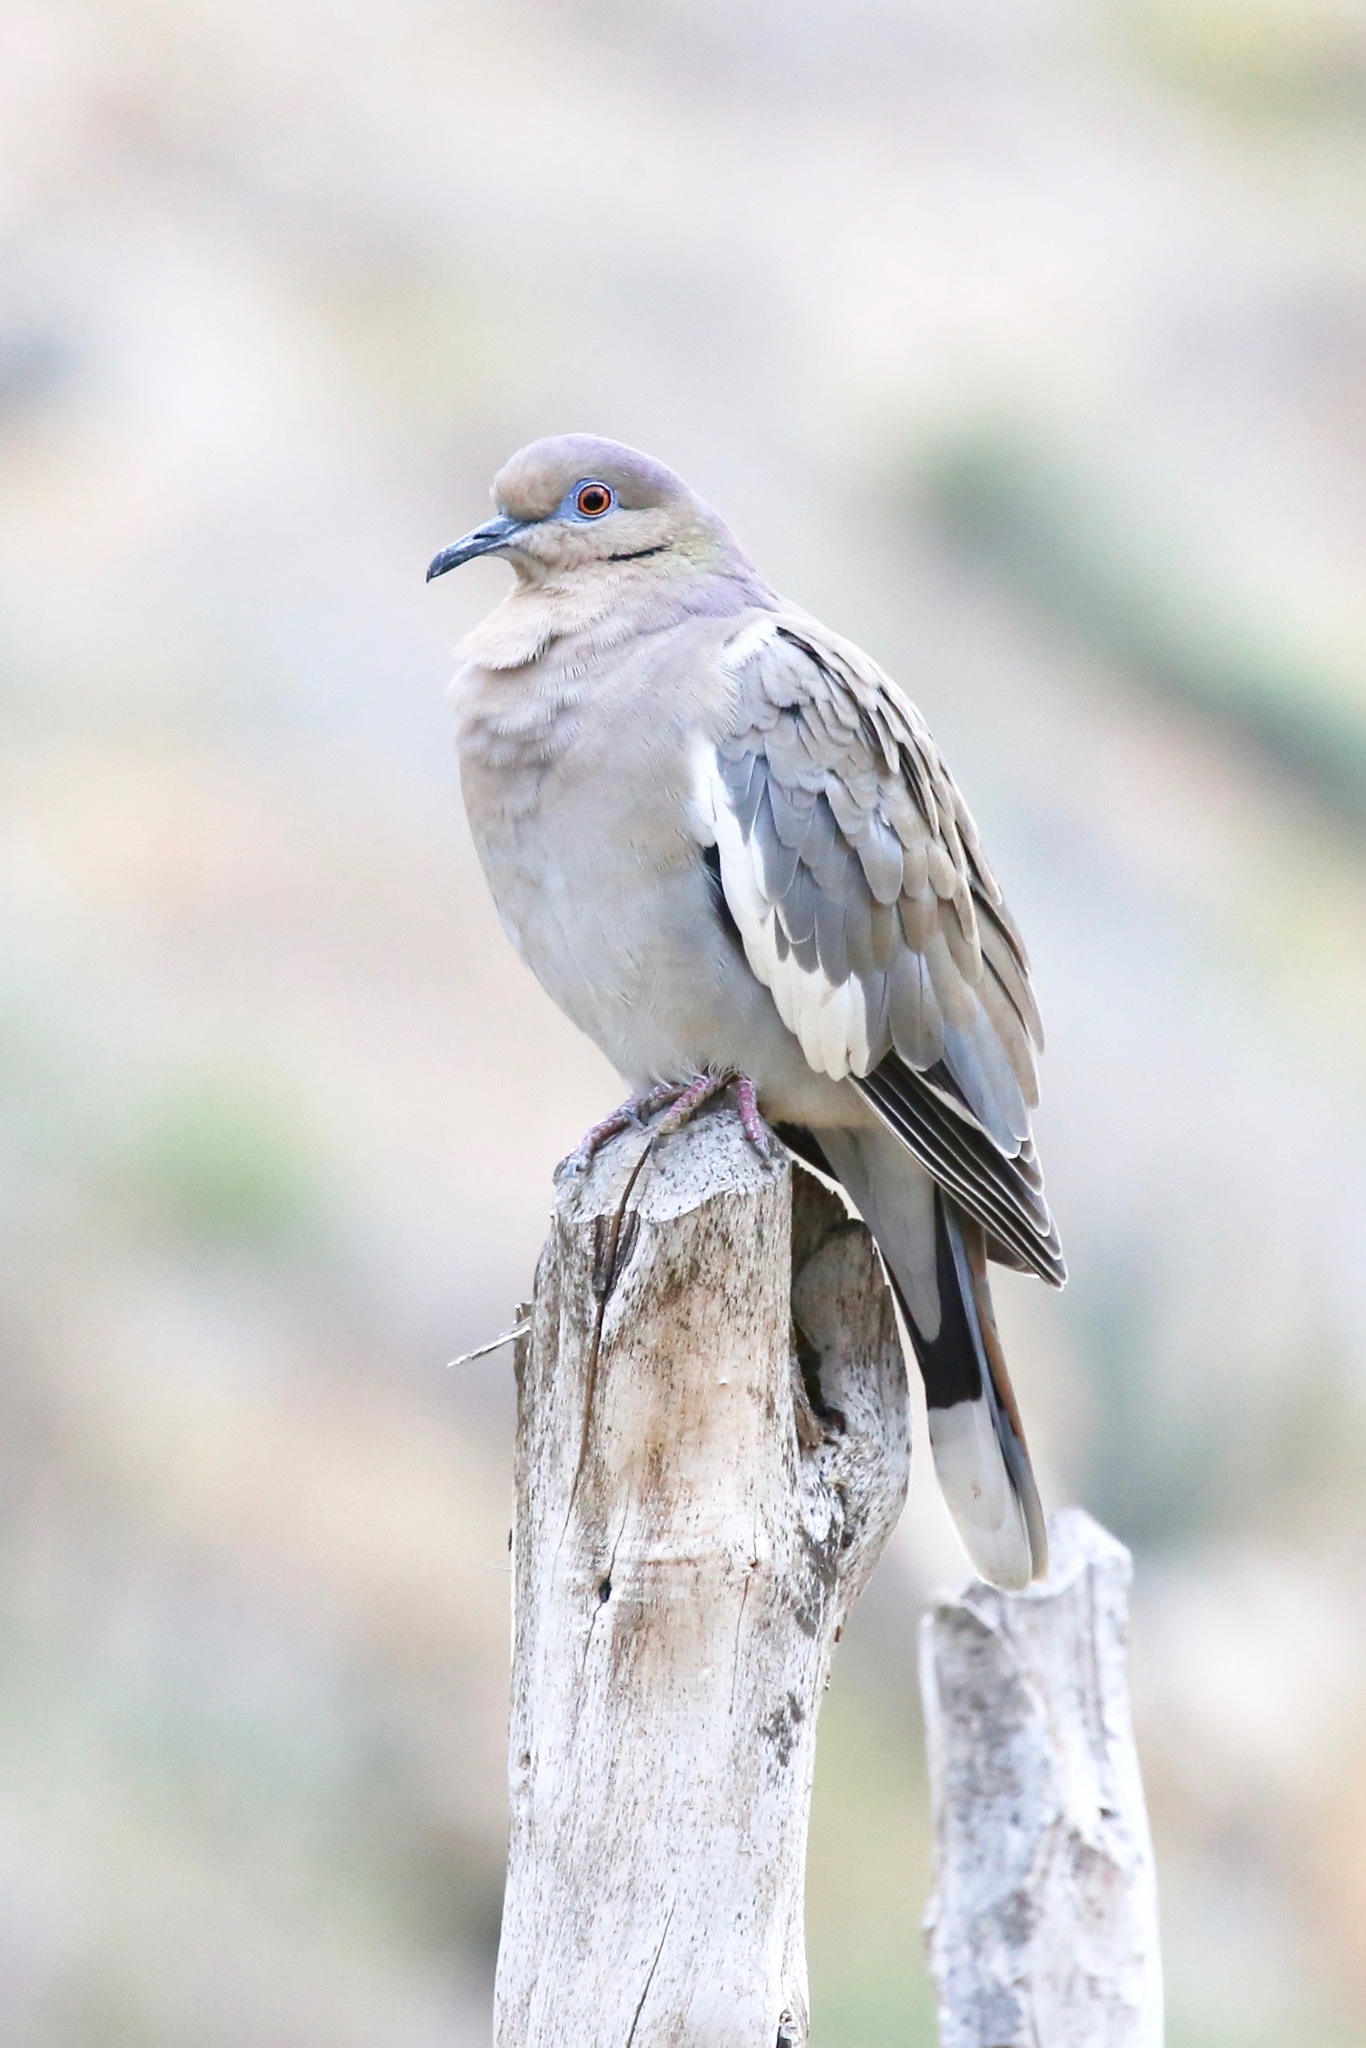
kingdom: Animalia
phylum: Chordata
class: Aves
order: Columbiformes
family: Columbidae
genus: Zenaida
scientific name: Zenaida asiatica
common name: White-winged dove
